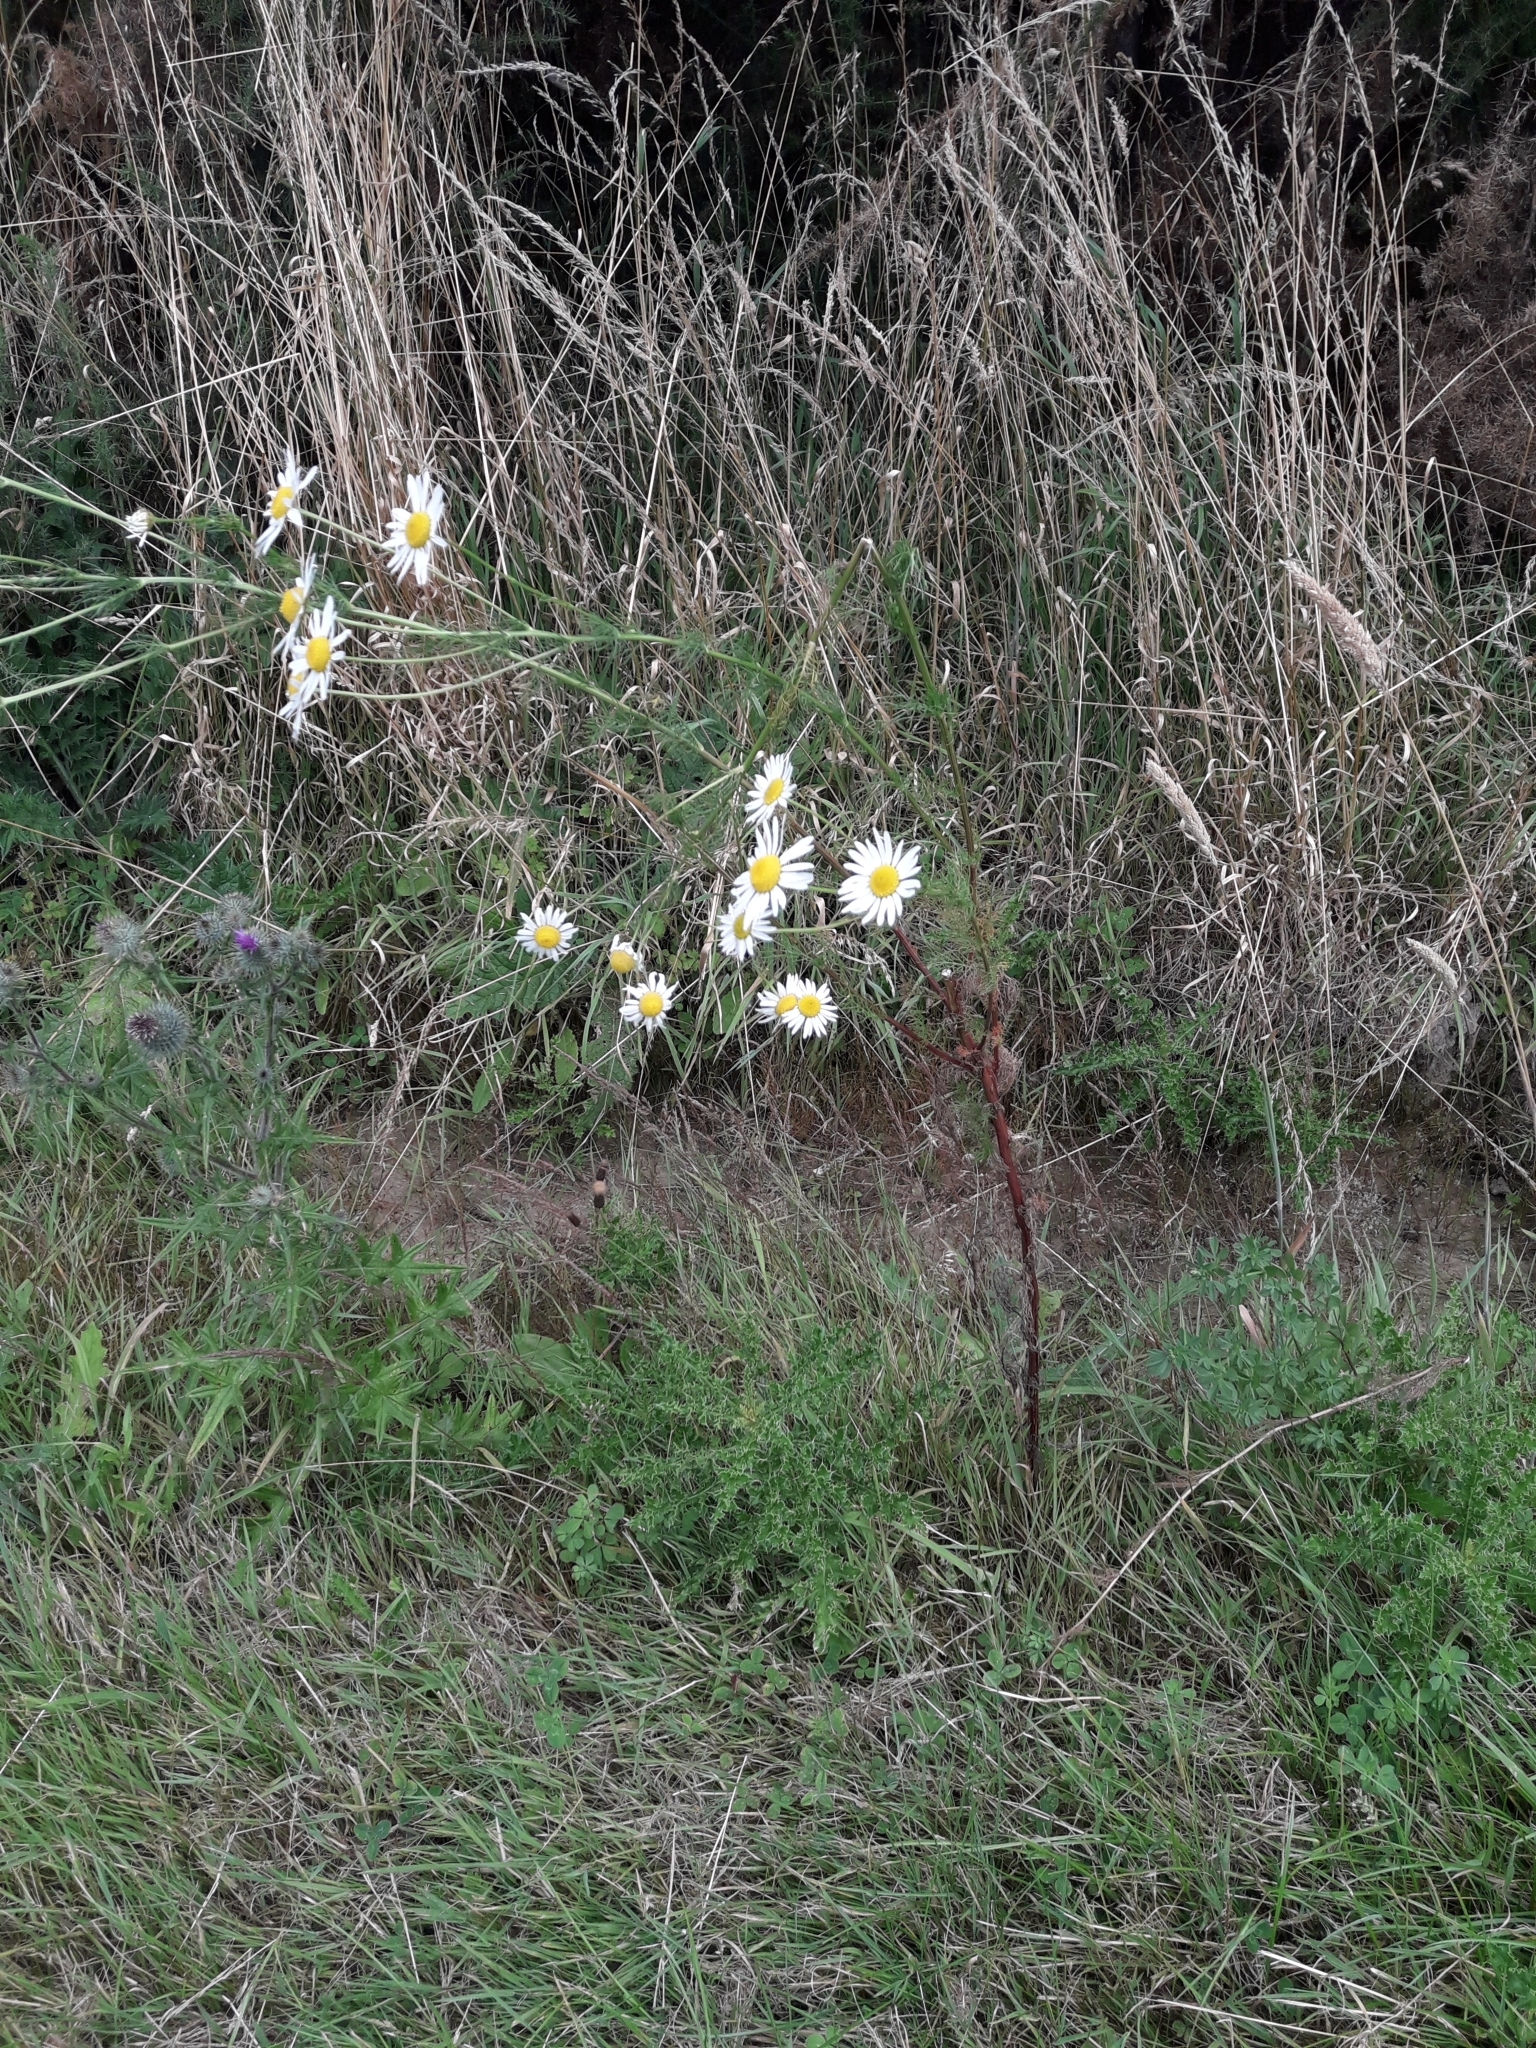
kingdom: Plantae
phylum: Tracheophyta
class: Magnoliopsida
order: Asterales
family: Asteraceae
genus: Tripleurospermum
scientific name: Tripleurospermum inodorum
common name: Scentless mayweed
